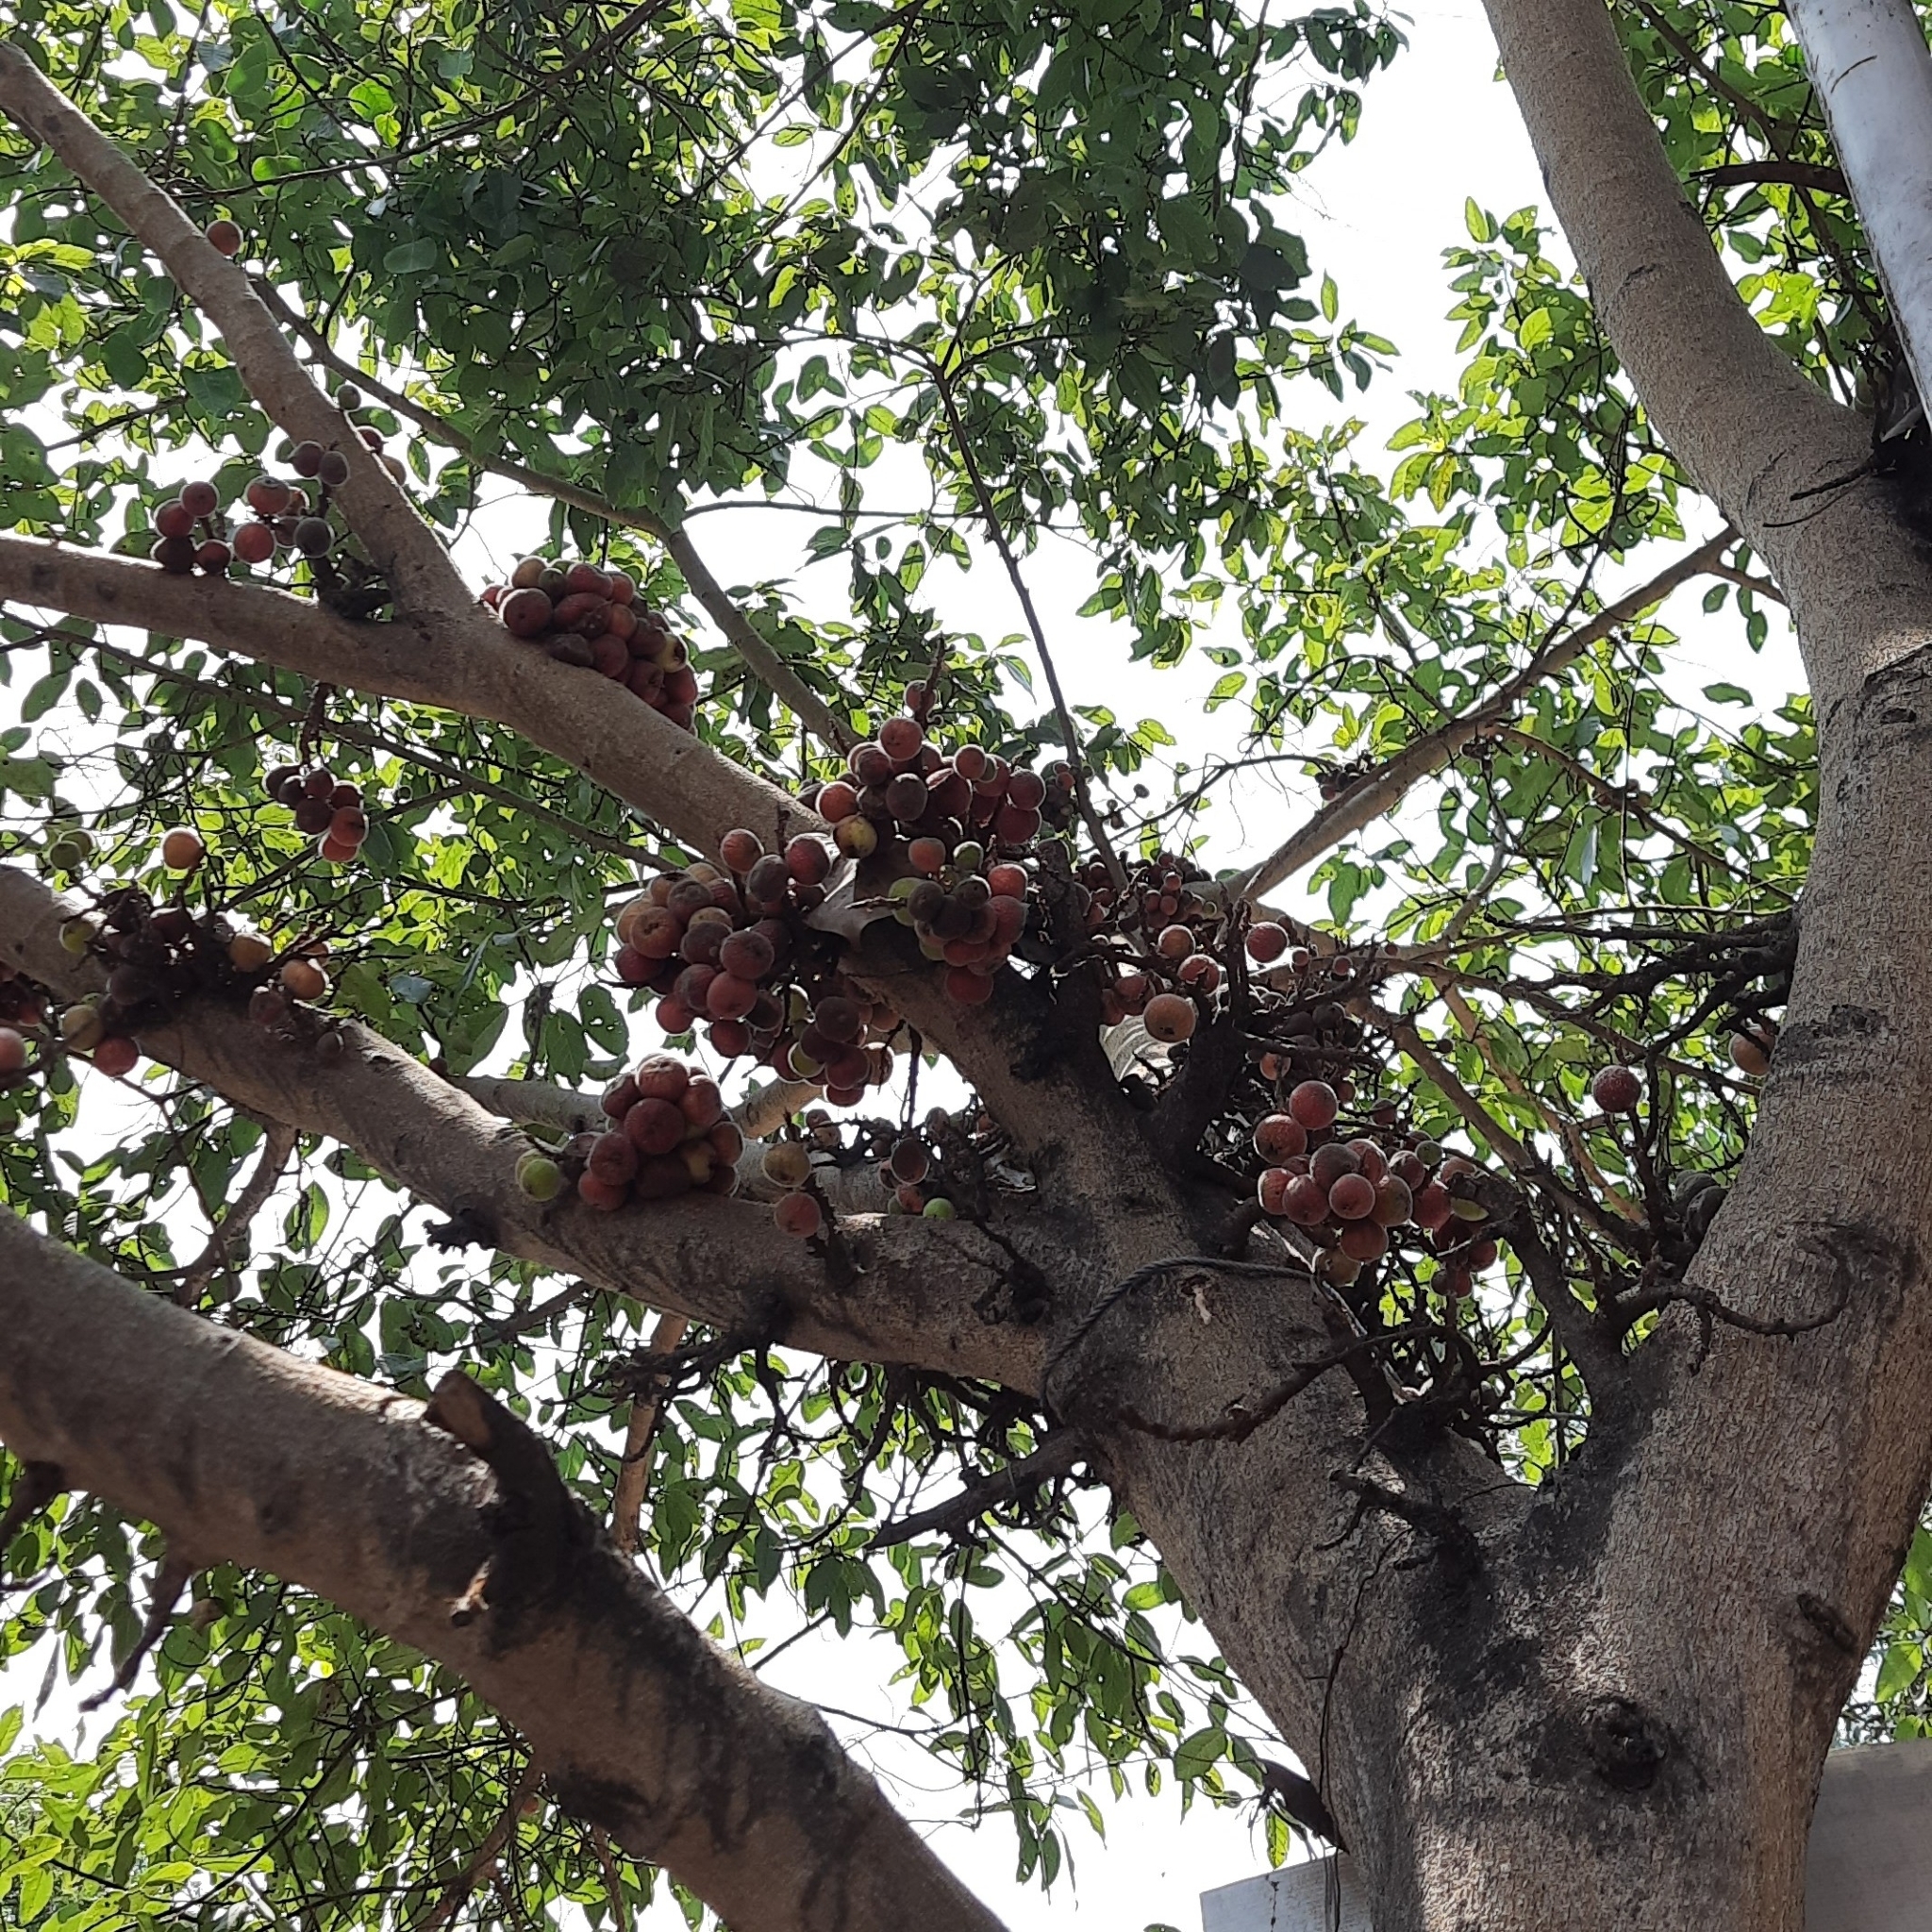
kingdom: Plantae
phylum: Tracheophyta
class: Magnoliopsida
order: Rosales
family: Moraceae
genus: Ficus
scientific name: Ficus racemosa
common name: Cluster fig
